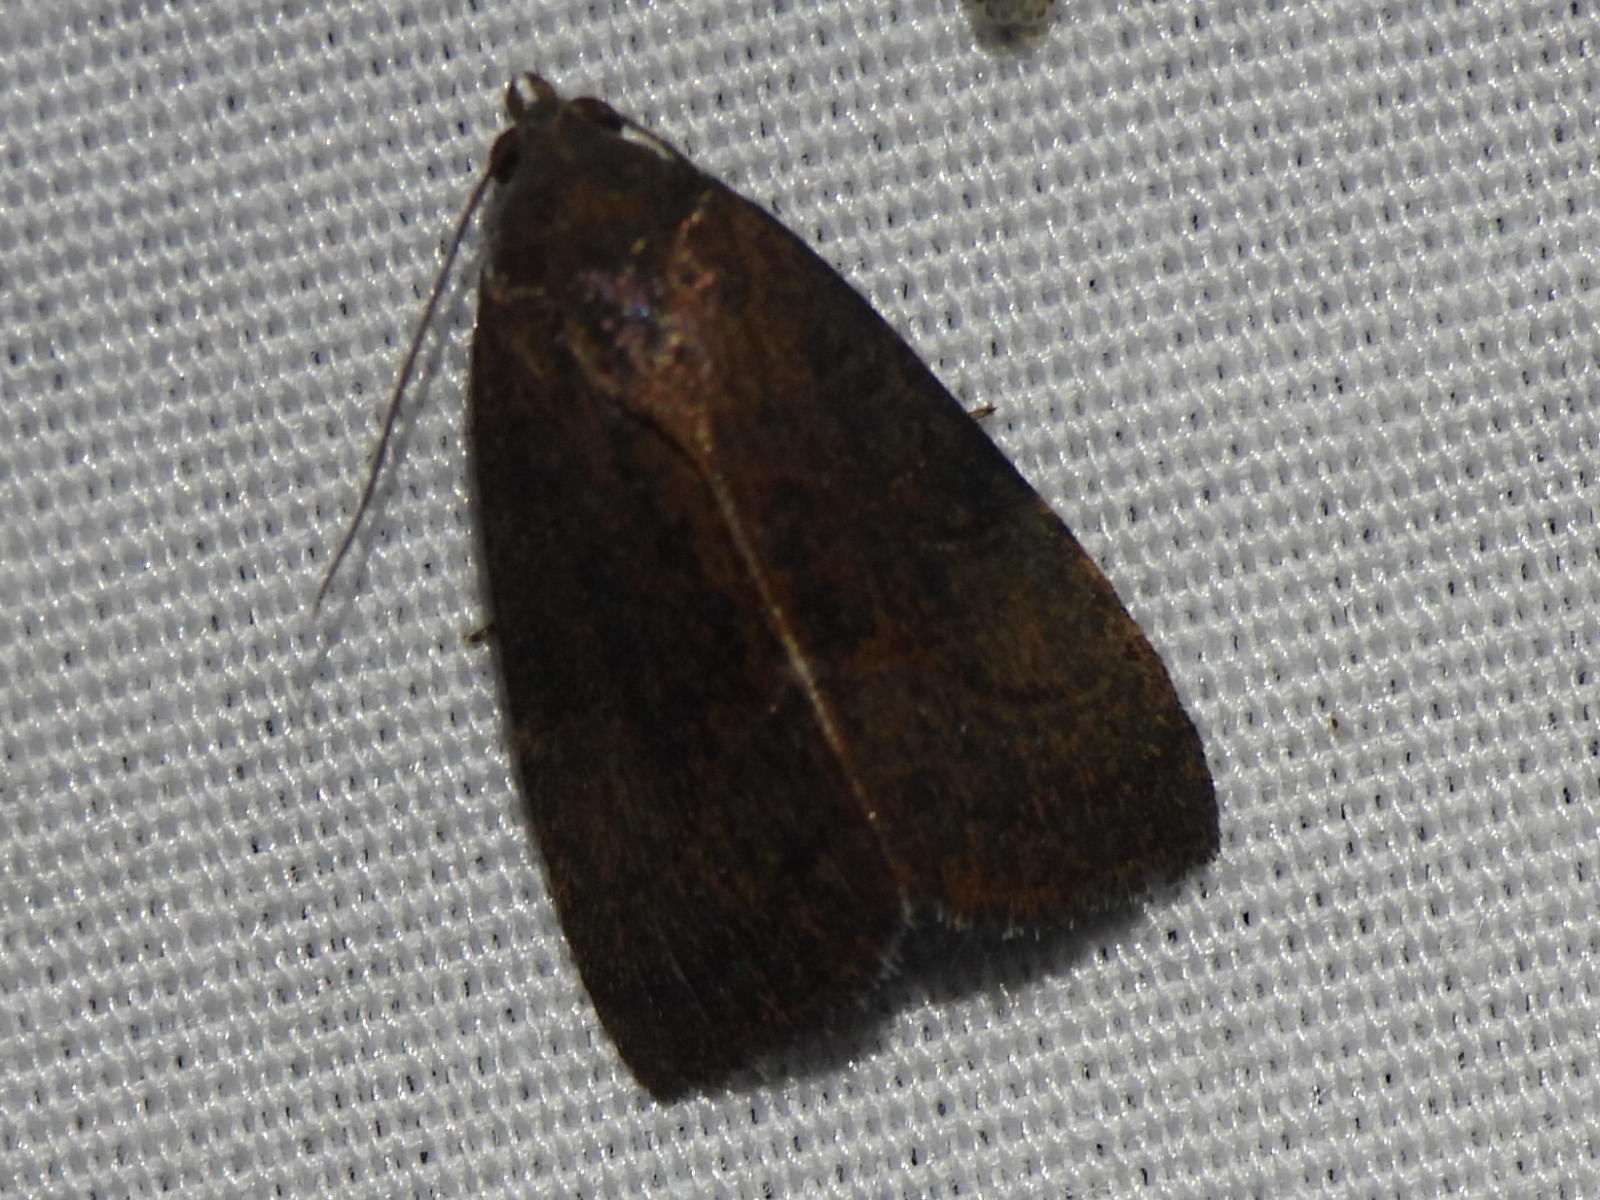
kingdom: Animalia
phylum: Arthropoda
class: Insecta
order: Lepidoptera
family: Noctuidae
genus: Galgula
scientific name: Galgula partita
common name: Wedgeling
